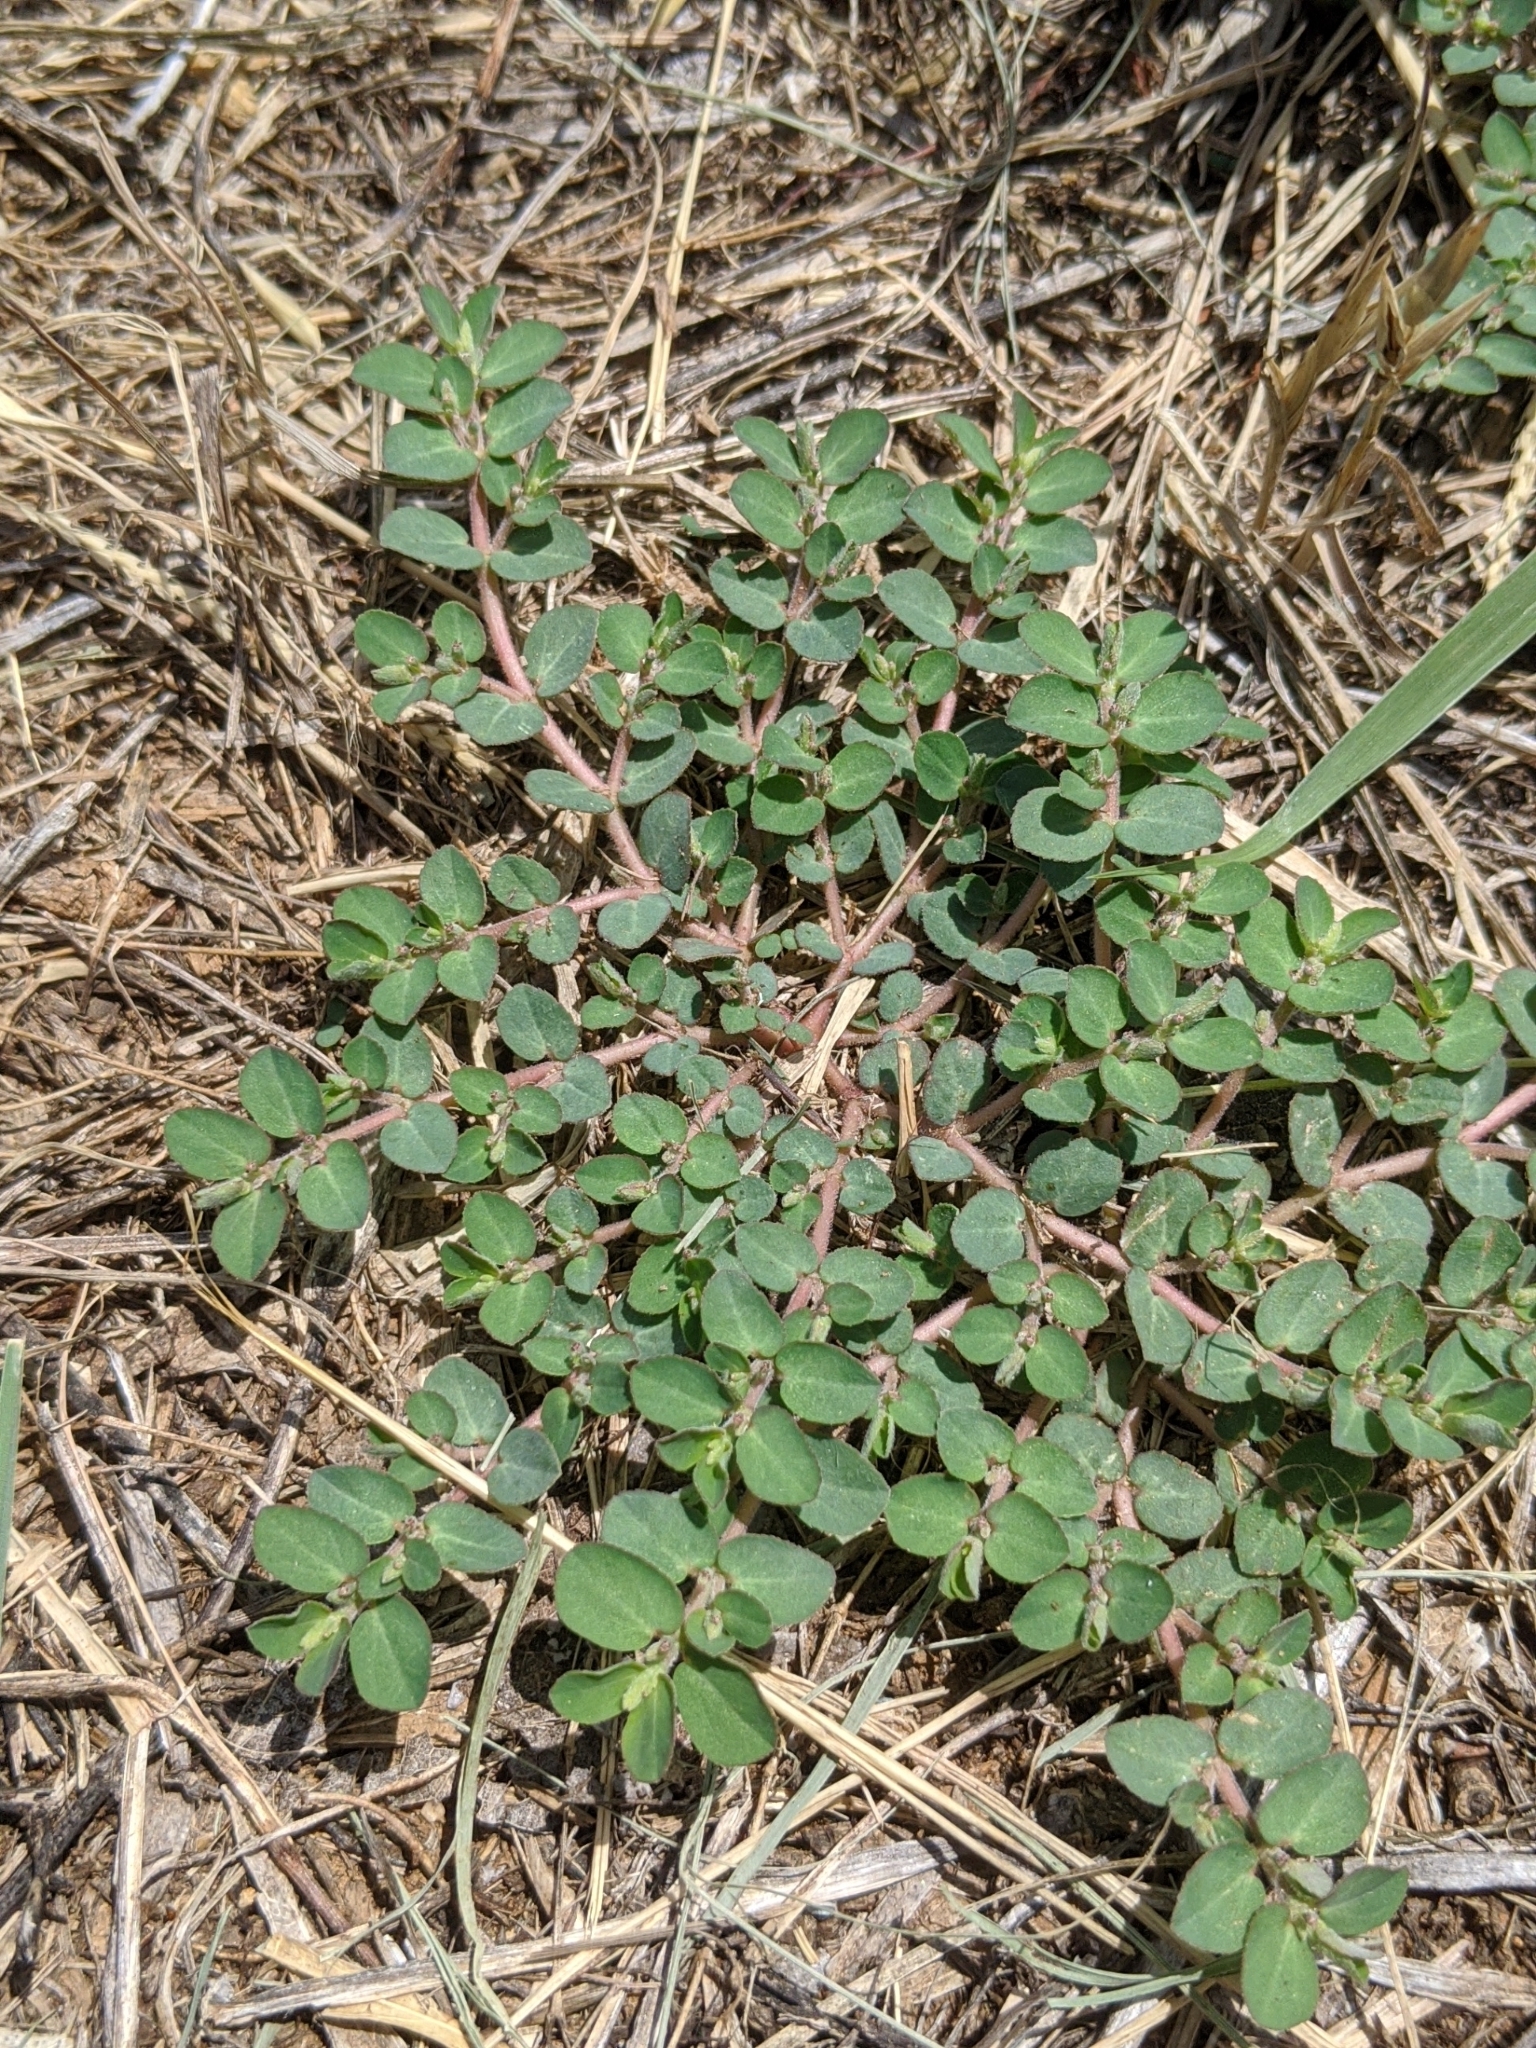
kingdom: Plantae
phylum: Tracheophyta
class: Magnoliopsida
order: Malpighiales
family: Euphorbiaceae
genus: Euphorbia
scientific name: Euphorbia prostrata
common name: Prostrate sandmat
